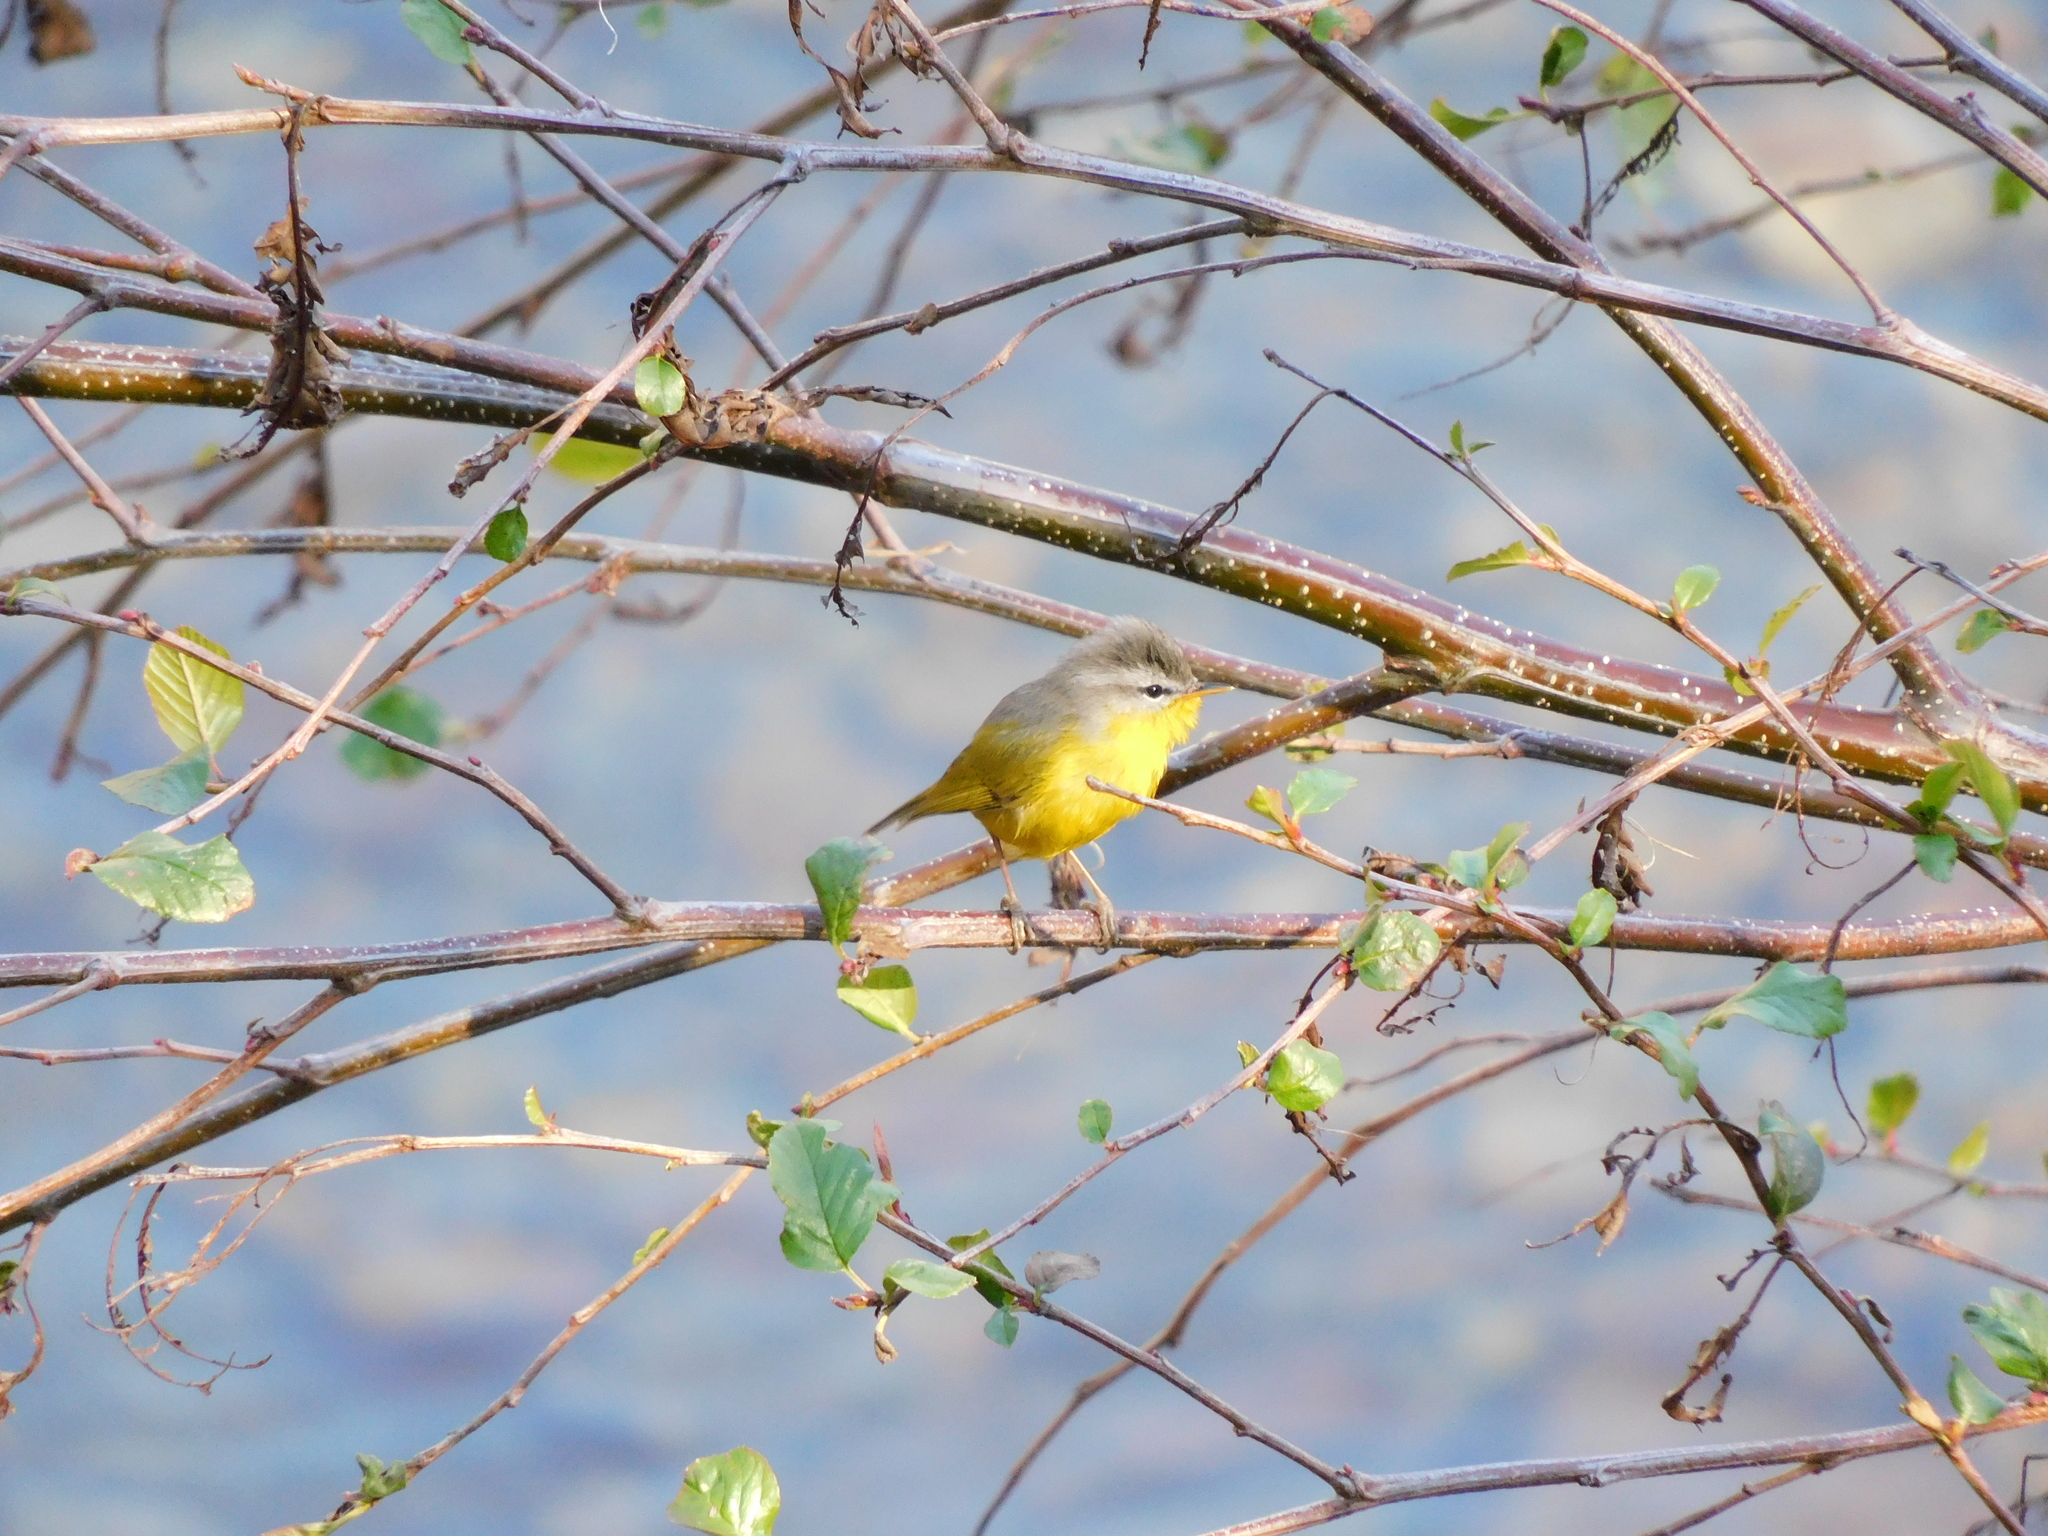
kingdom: Animalia
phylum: Chordata
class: Aves
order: Passeriformes
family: Phylloscopidae
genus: Phylloscopus
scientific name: Phylloscopus xanthoschistos
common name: Grey-hooded warbler
